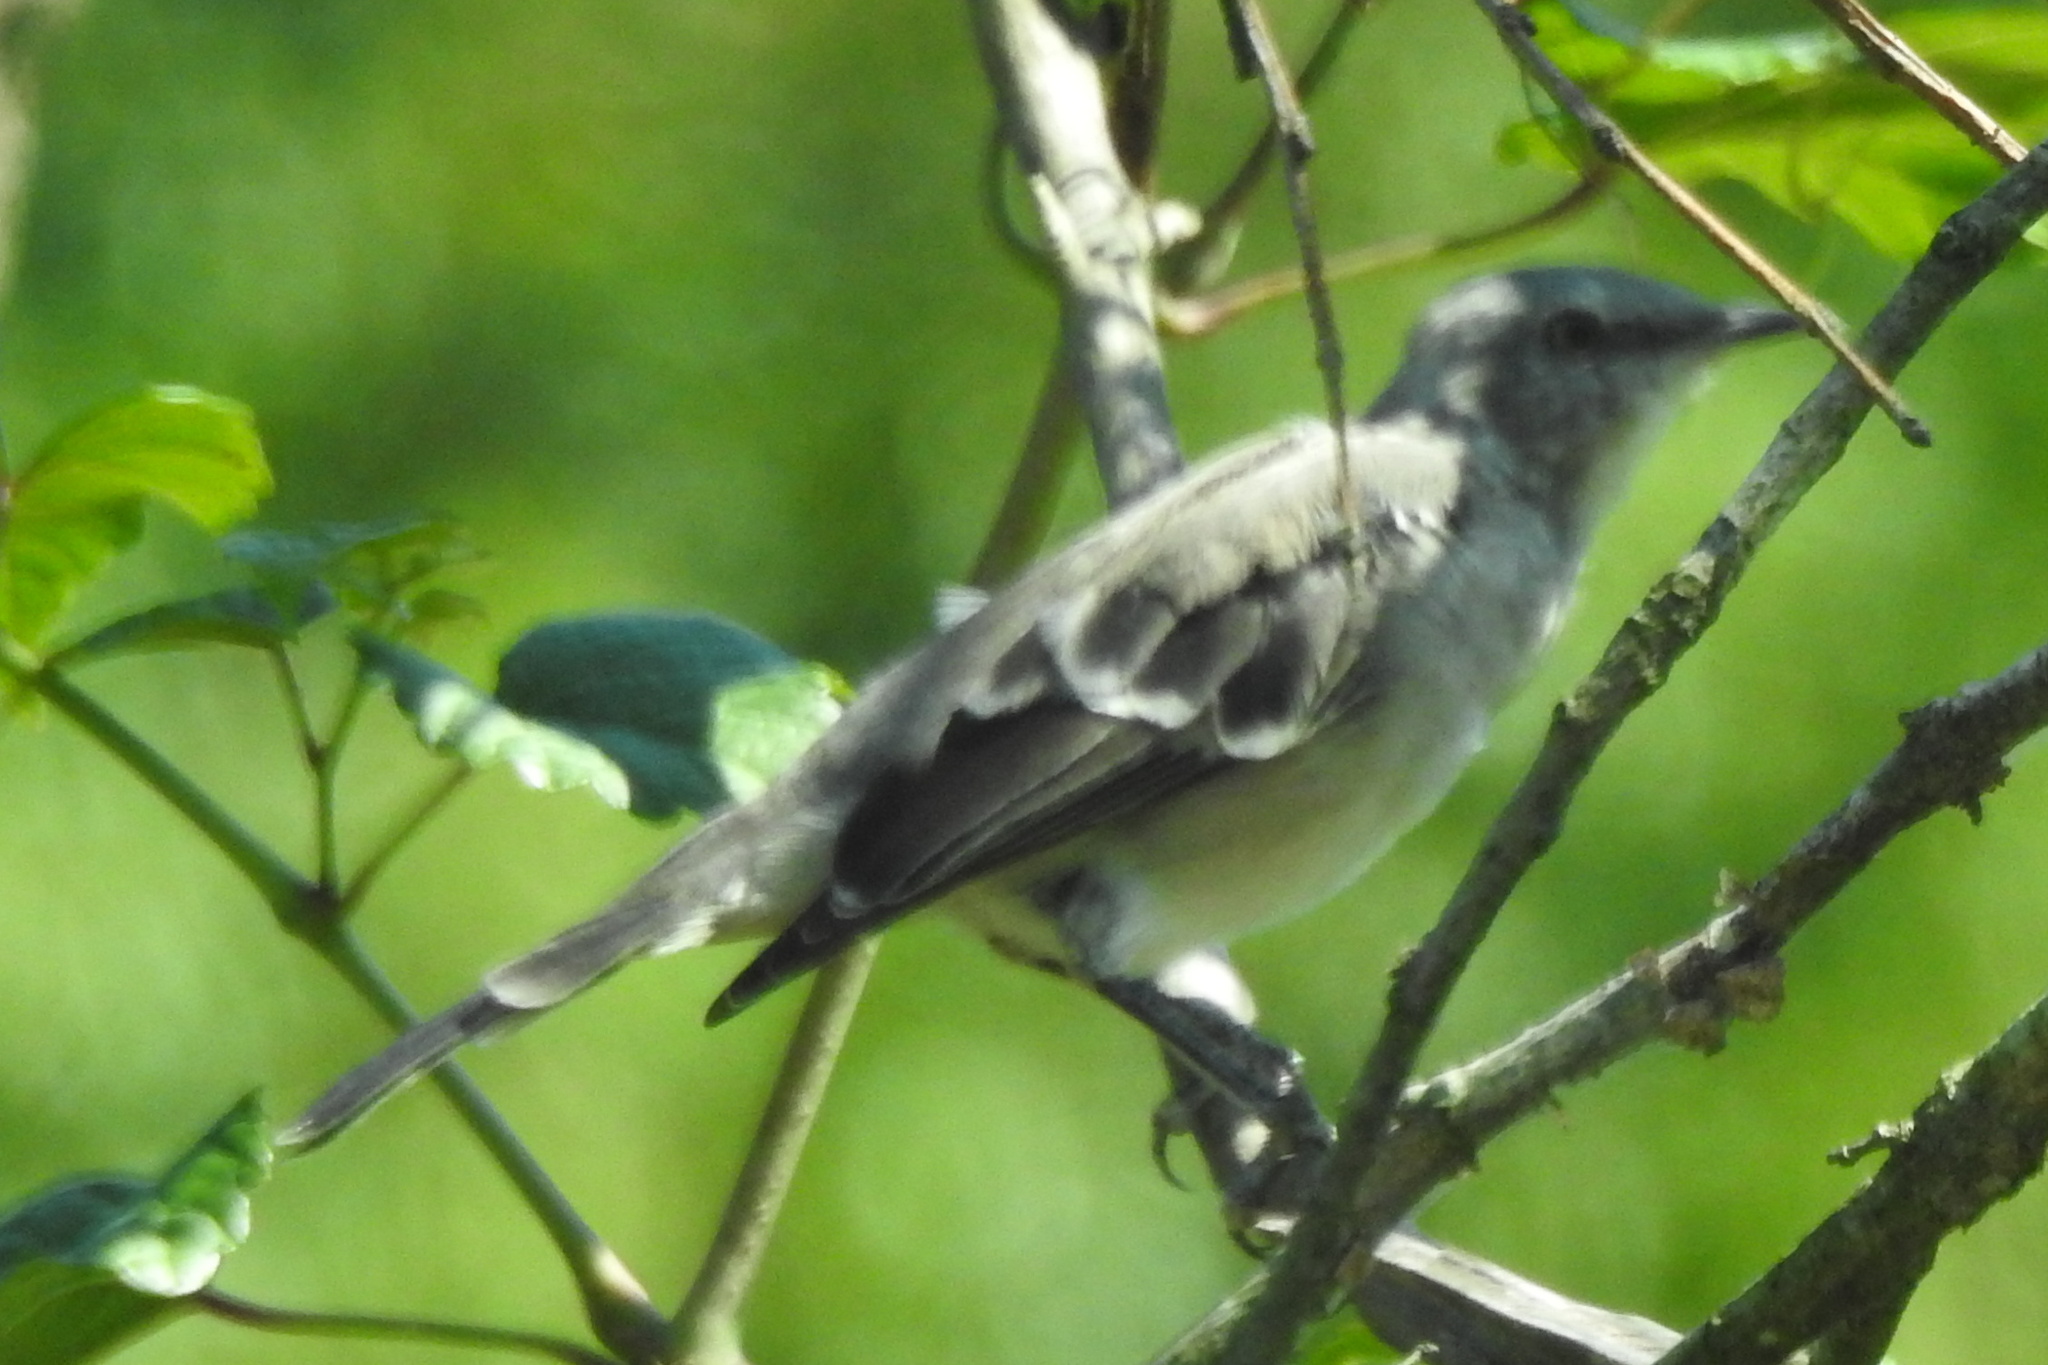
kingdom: Animalia
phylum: Chordata
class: Aves
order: Passeriformes
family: Mimidae
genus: Mimus
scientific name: Mimus polyglottos
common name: Northern mockingbird
